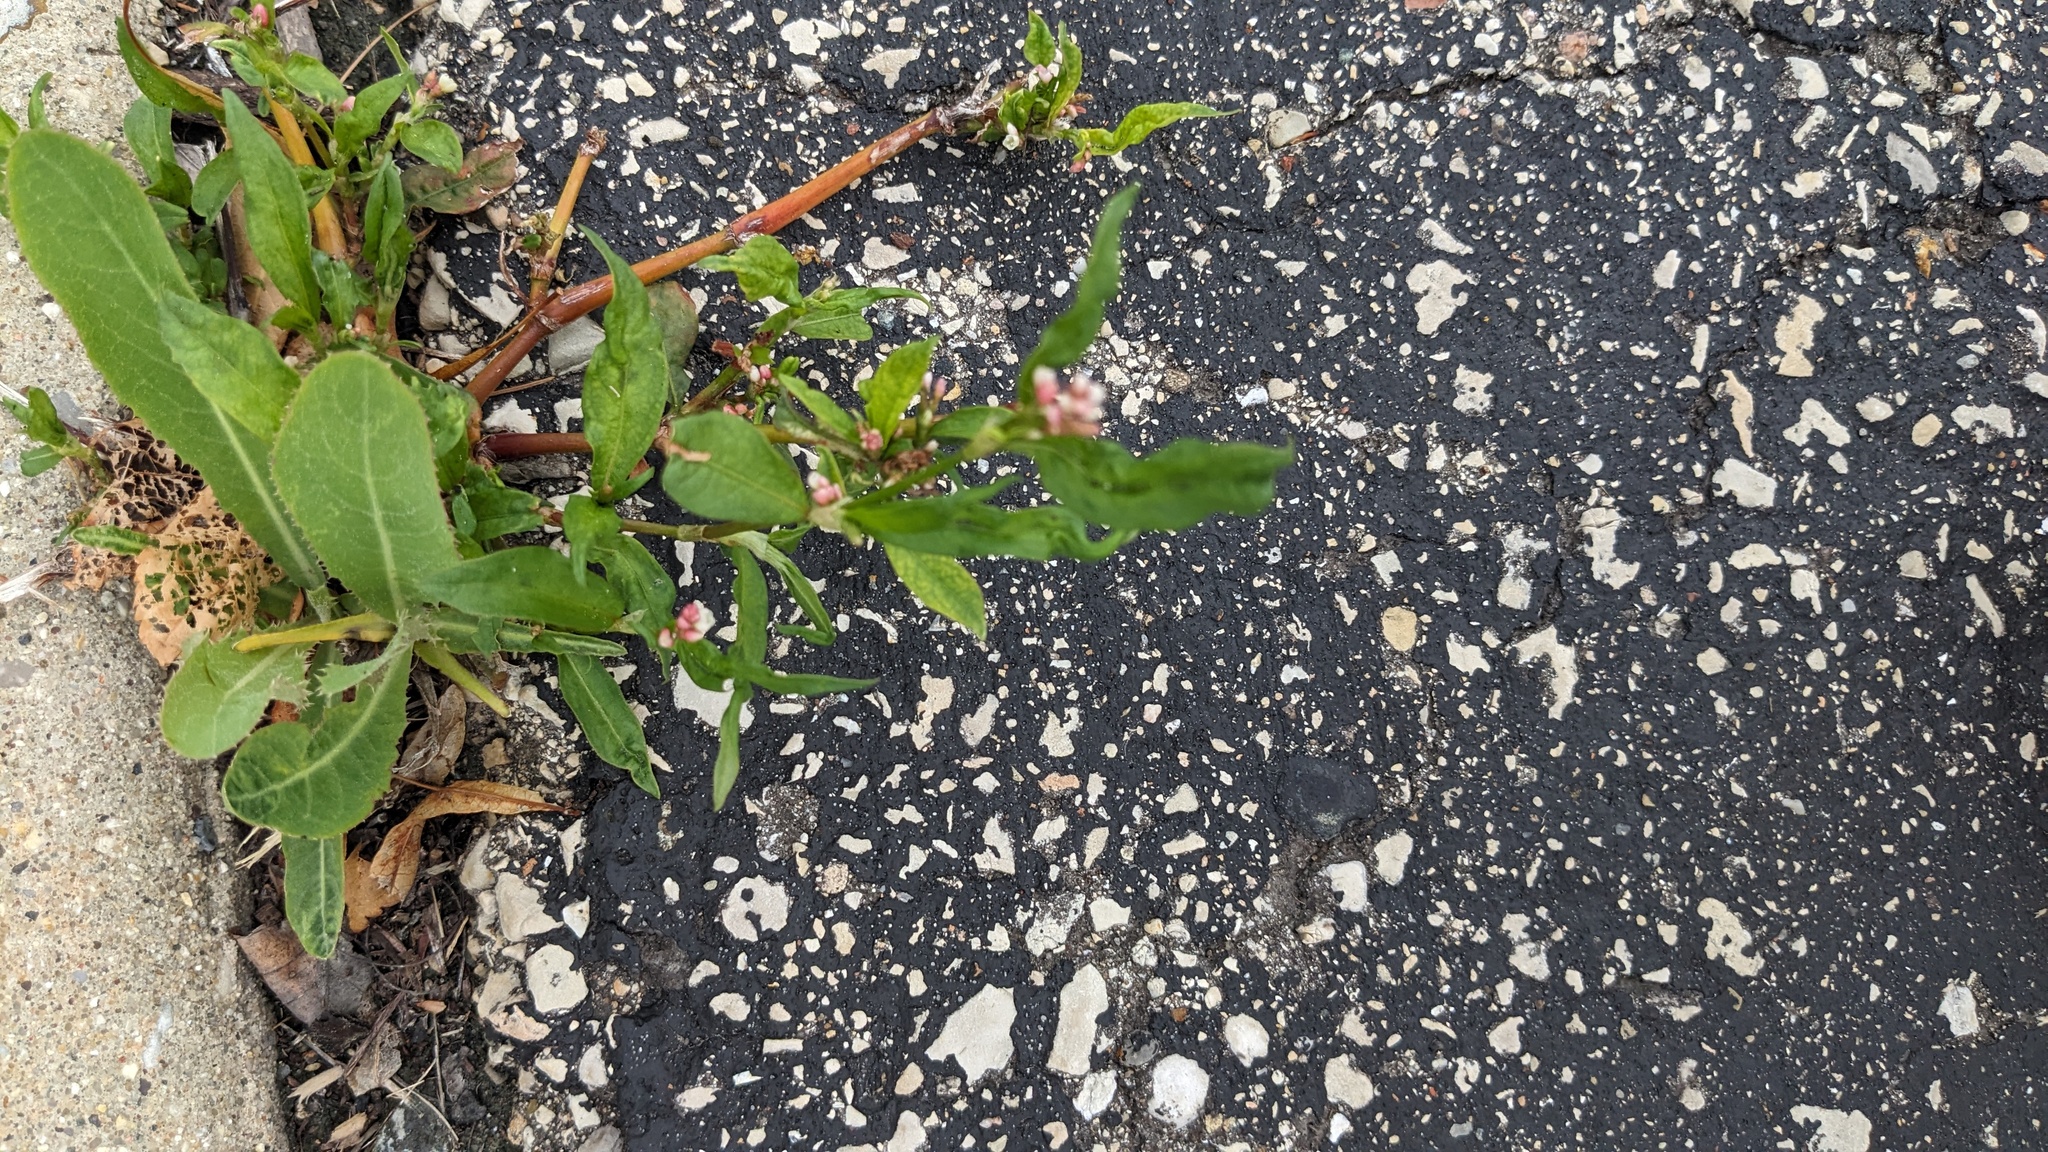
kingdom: Plantae
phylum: Tracheophyta
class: Magnoliopsida
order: Caryophyllales
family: Polygonaceae
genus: Persicaria
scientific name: Persicaria maculosa
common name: Redshank
